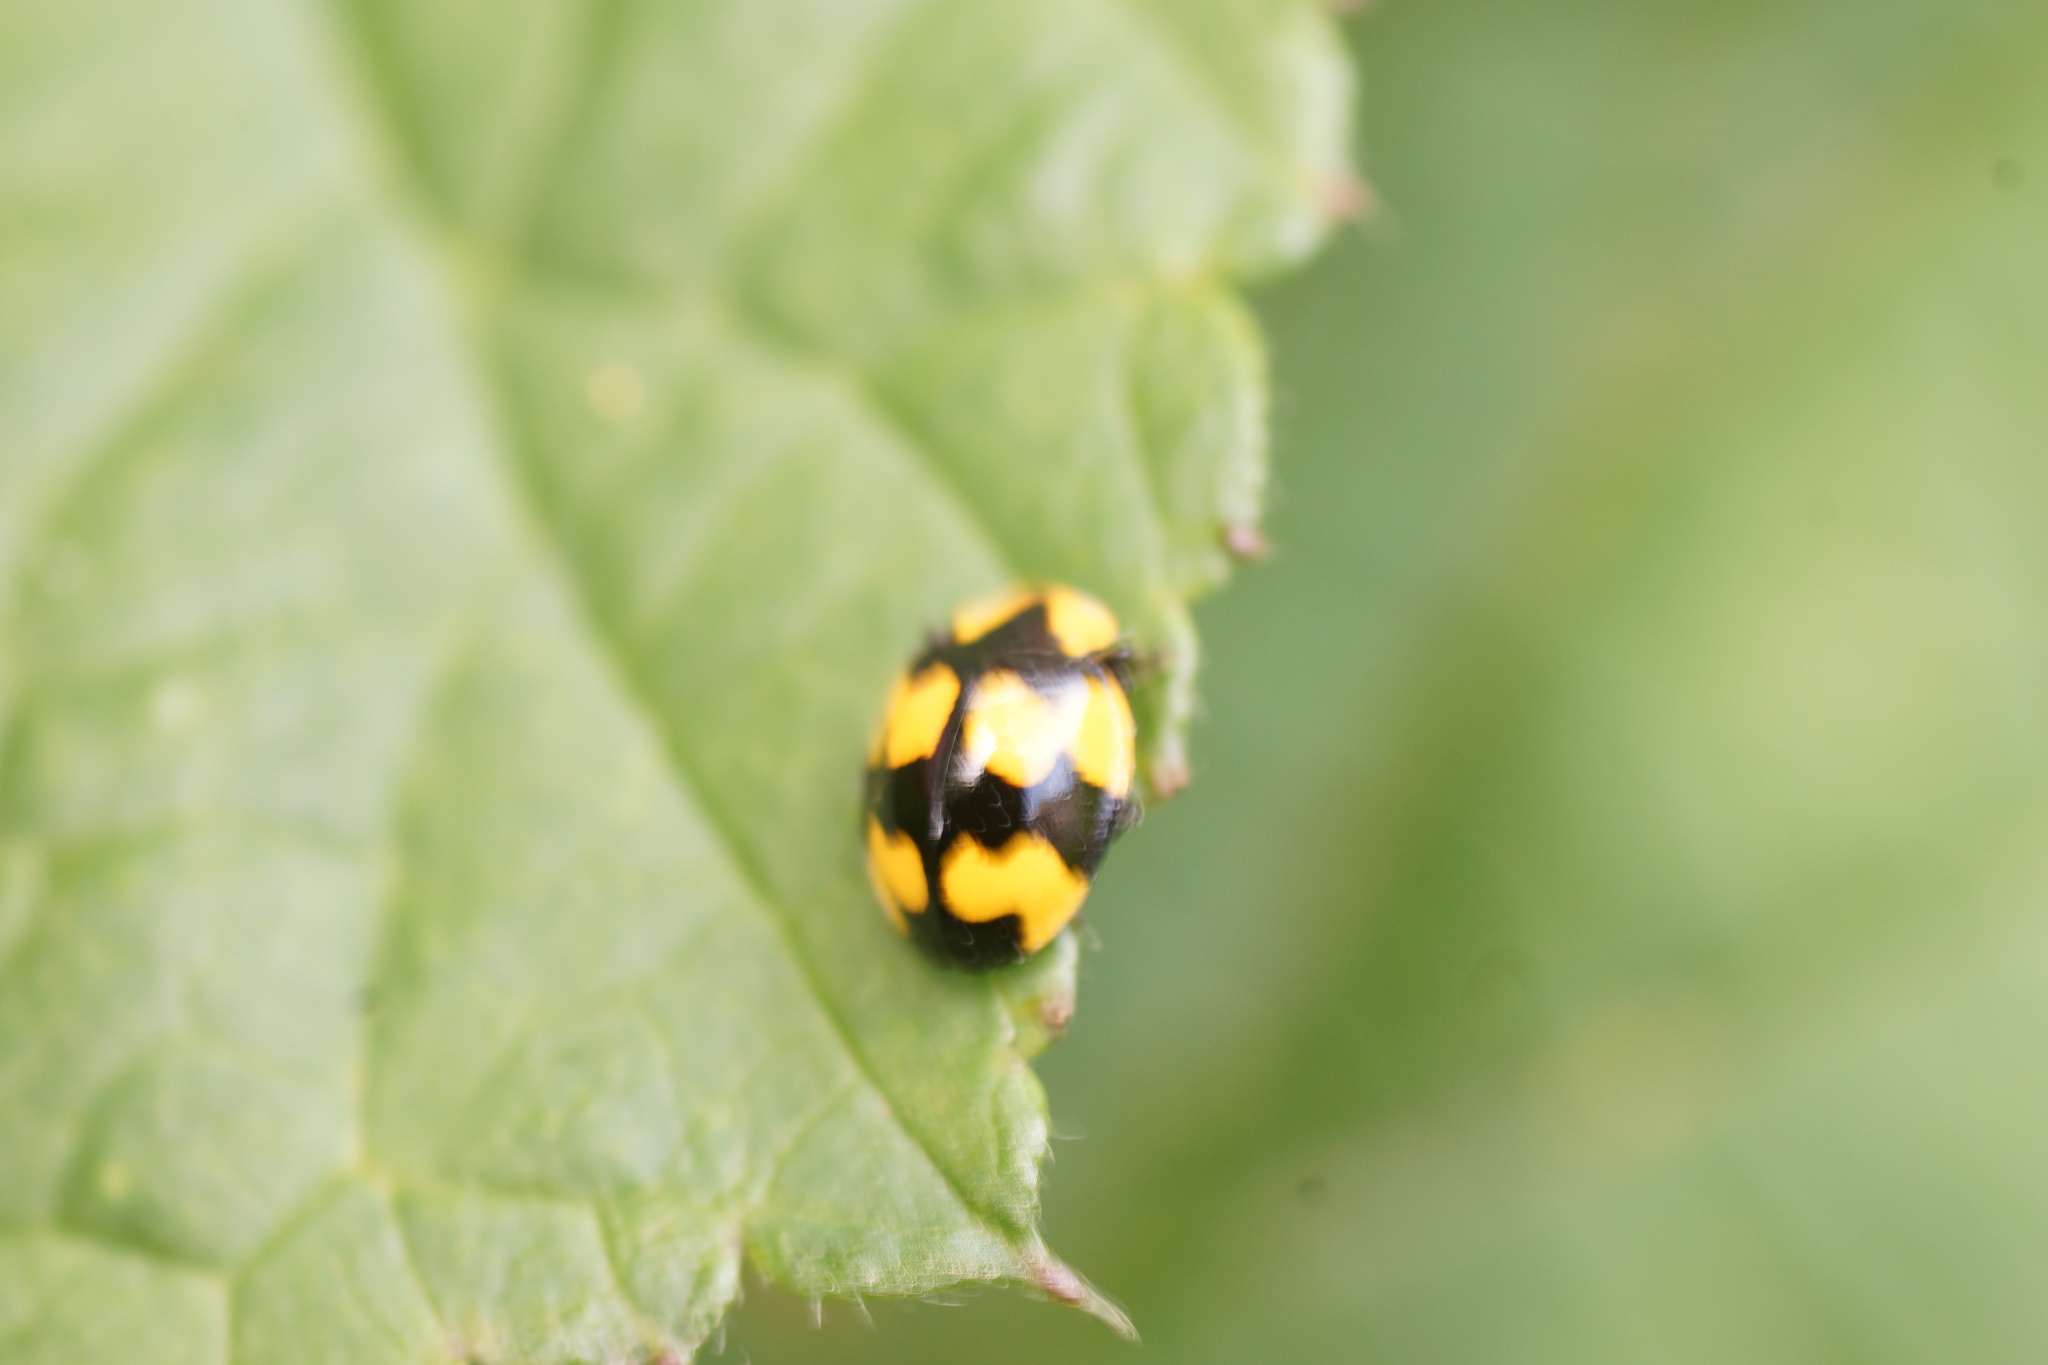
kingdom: Animalia
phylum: Arthropoda
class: Insecta
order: Coleoptera
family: Coccinellidae
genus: Illeis
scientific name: Illeis galbula
